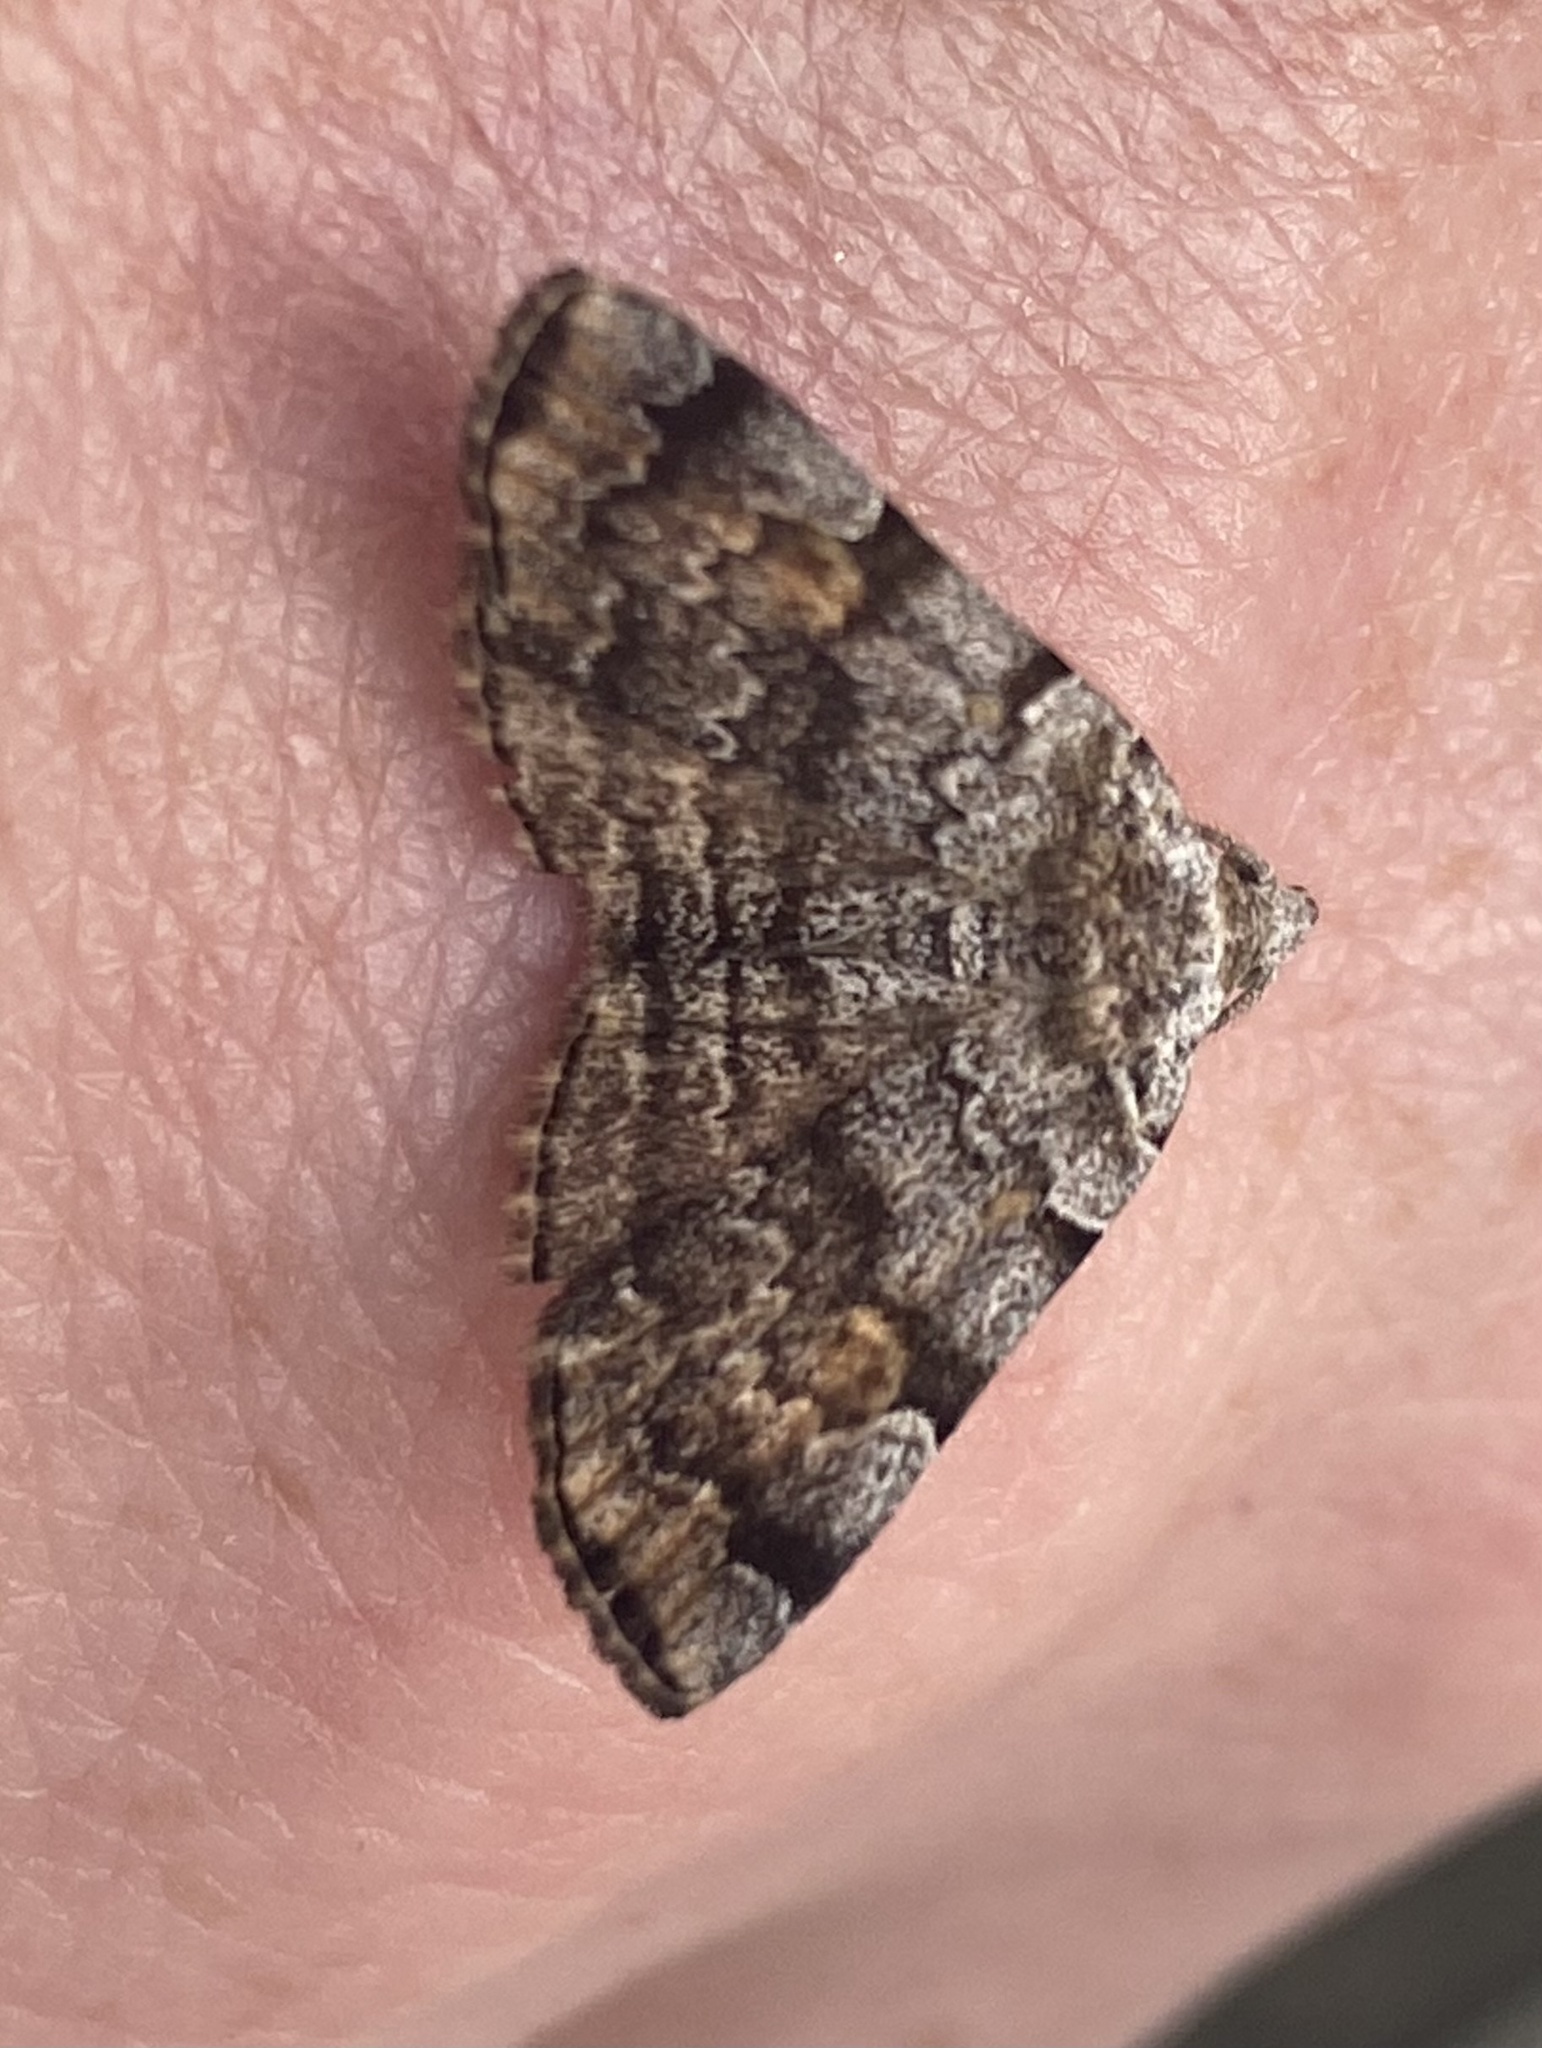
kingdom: Animalia
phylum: Arthropoda
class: Insecta
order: Lepidoptera
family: Erebidae
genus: Idia
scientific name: Idia americalis
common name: American idia moth
